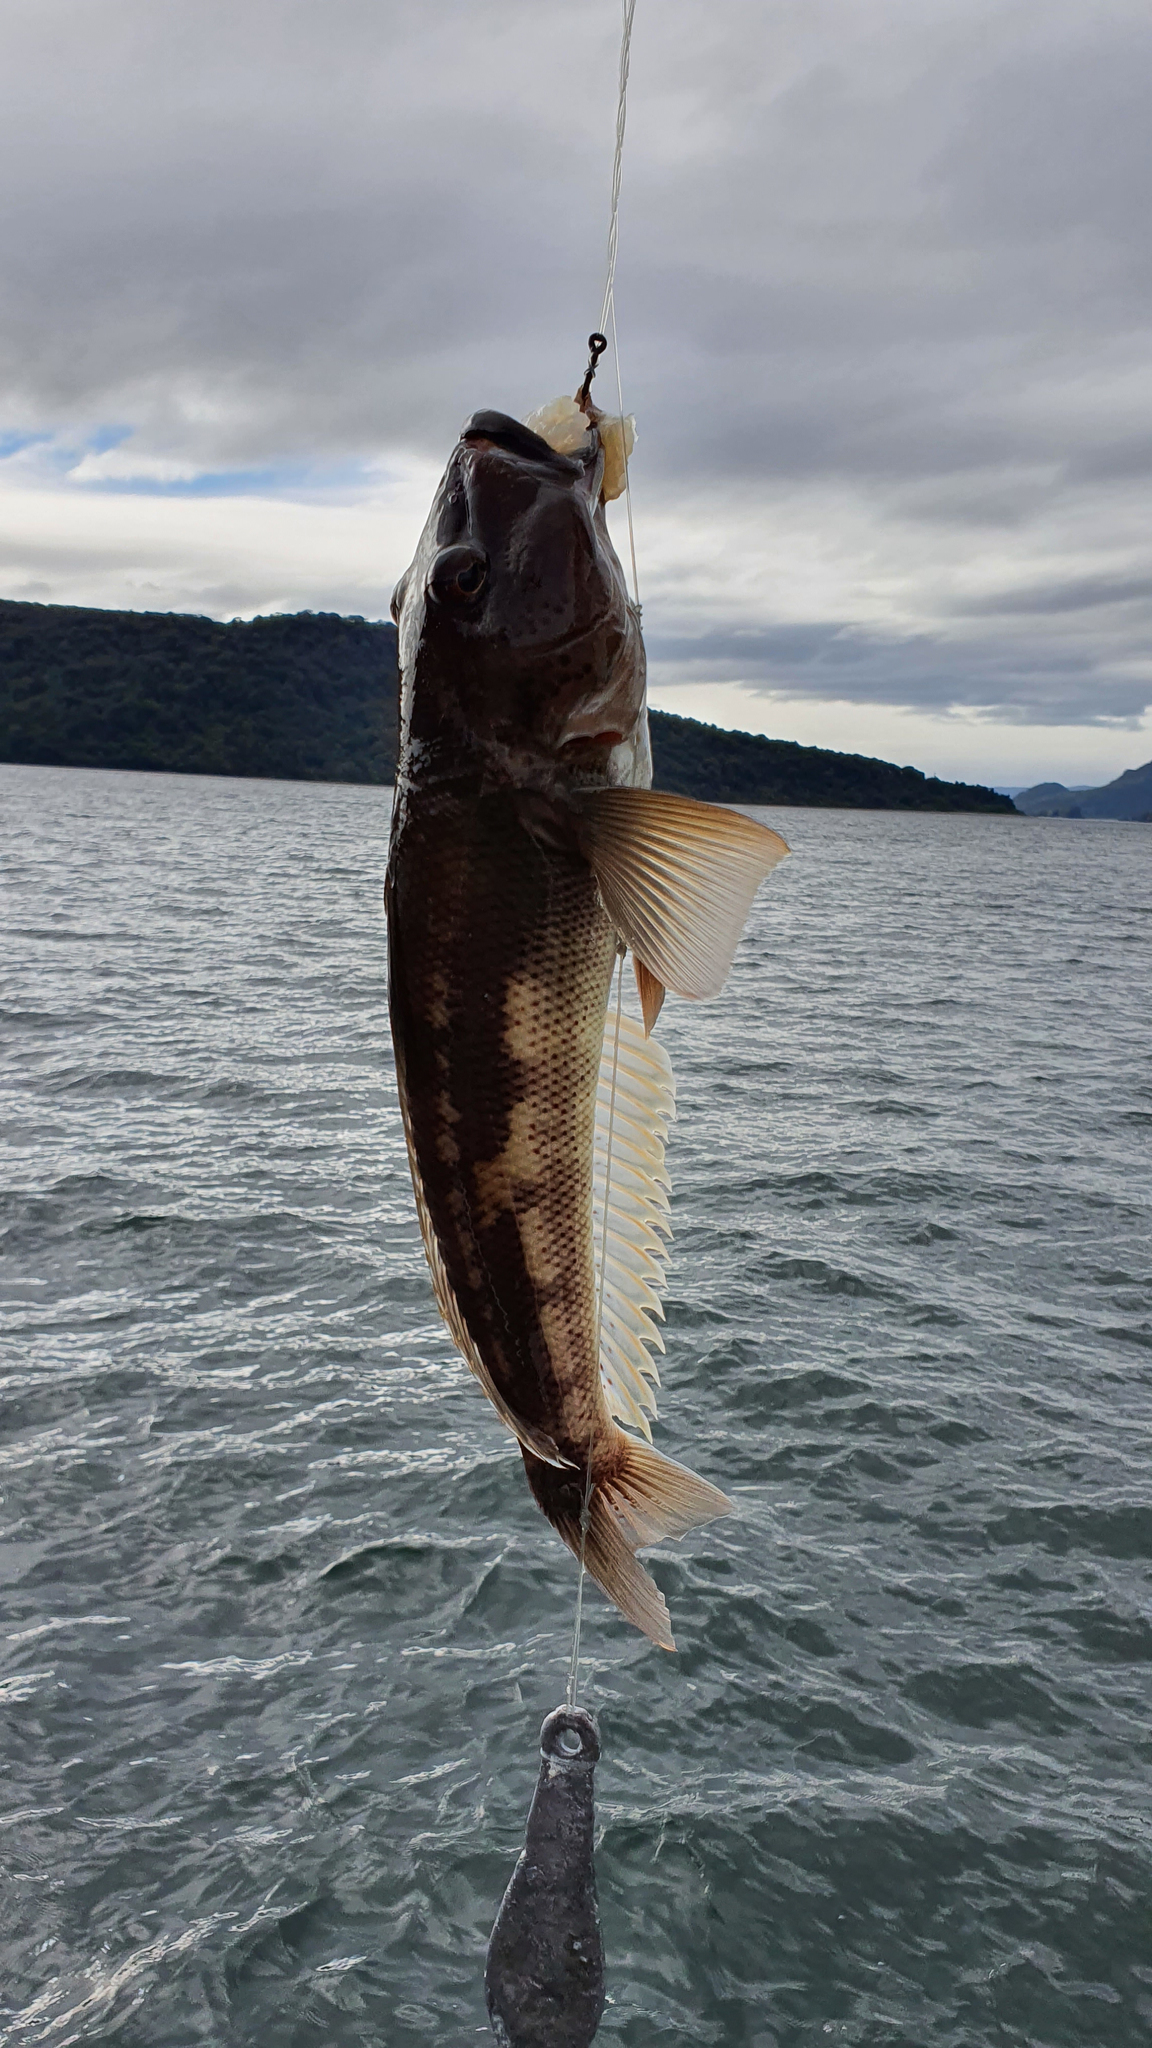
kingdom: Animalia
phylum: Chordata
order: Perciformes
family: Pinguipedidae
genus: Parapercis
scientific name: Parapercis colias
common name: Blue cod
